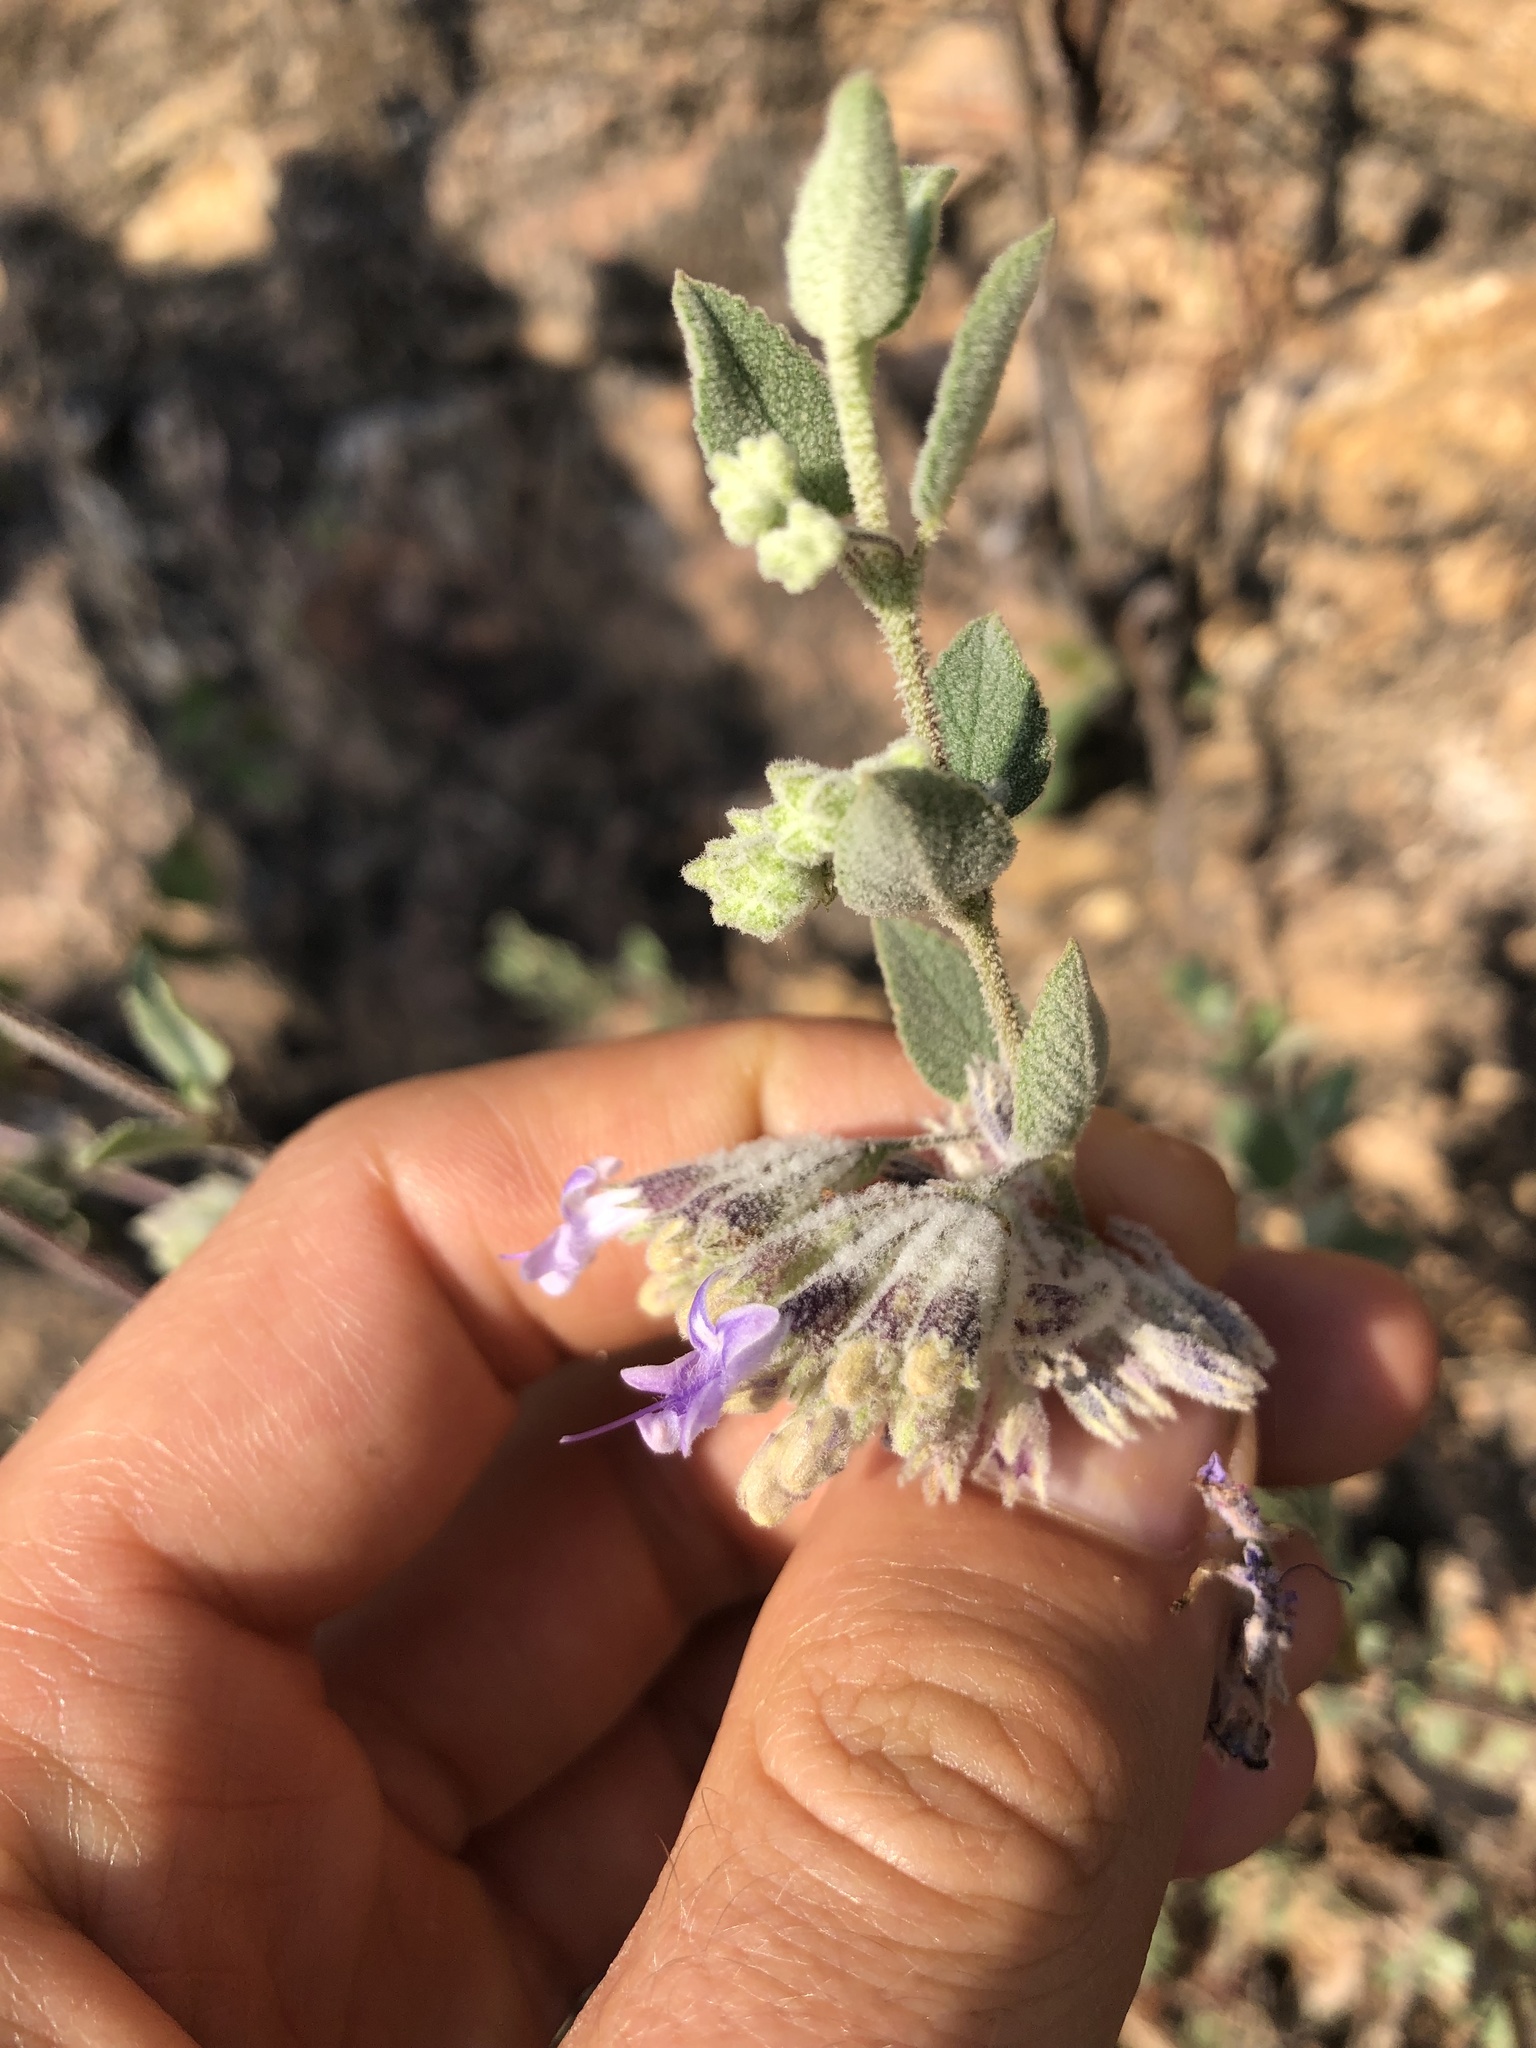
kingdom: Plantae
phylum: Tracheophyta
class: Magnoliopsida
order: Lamiales
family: Lamiaceae
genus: Condea
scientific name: Condea tomentosa
